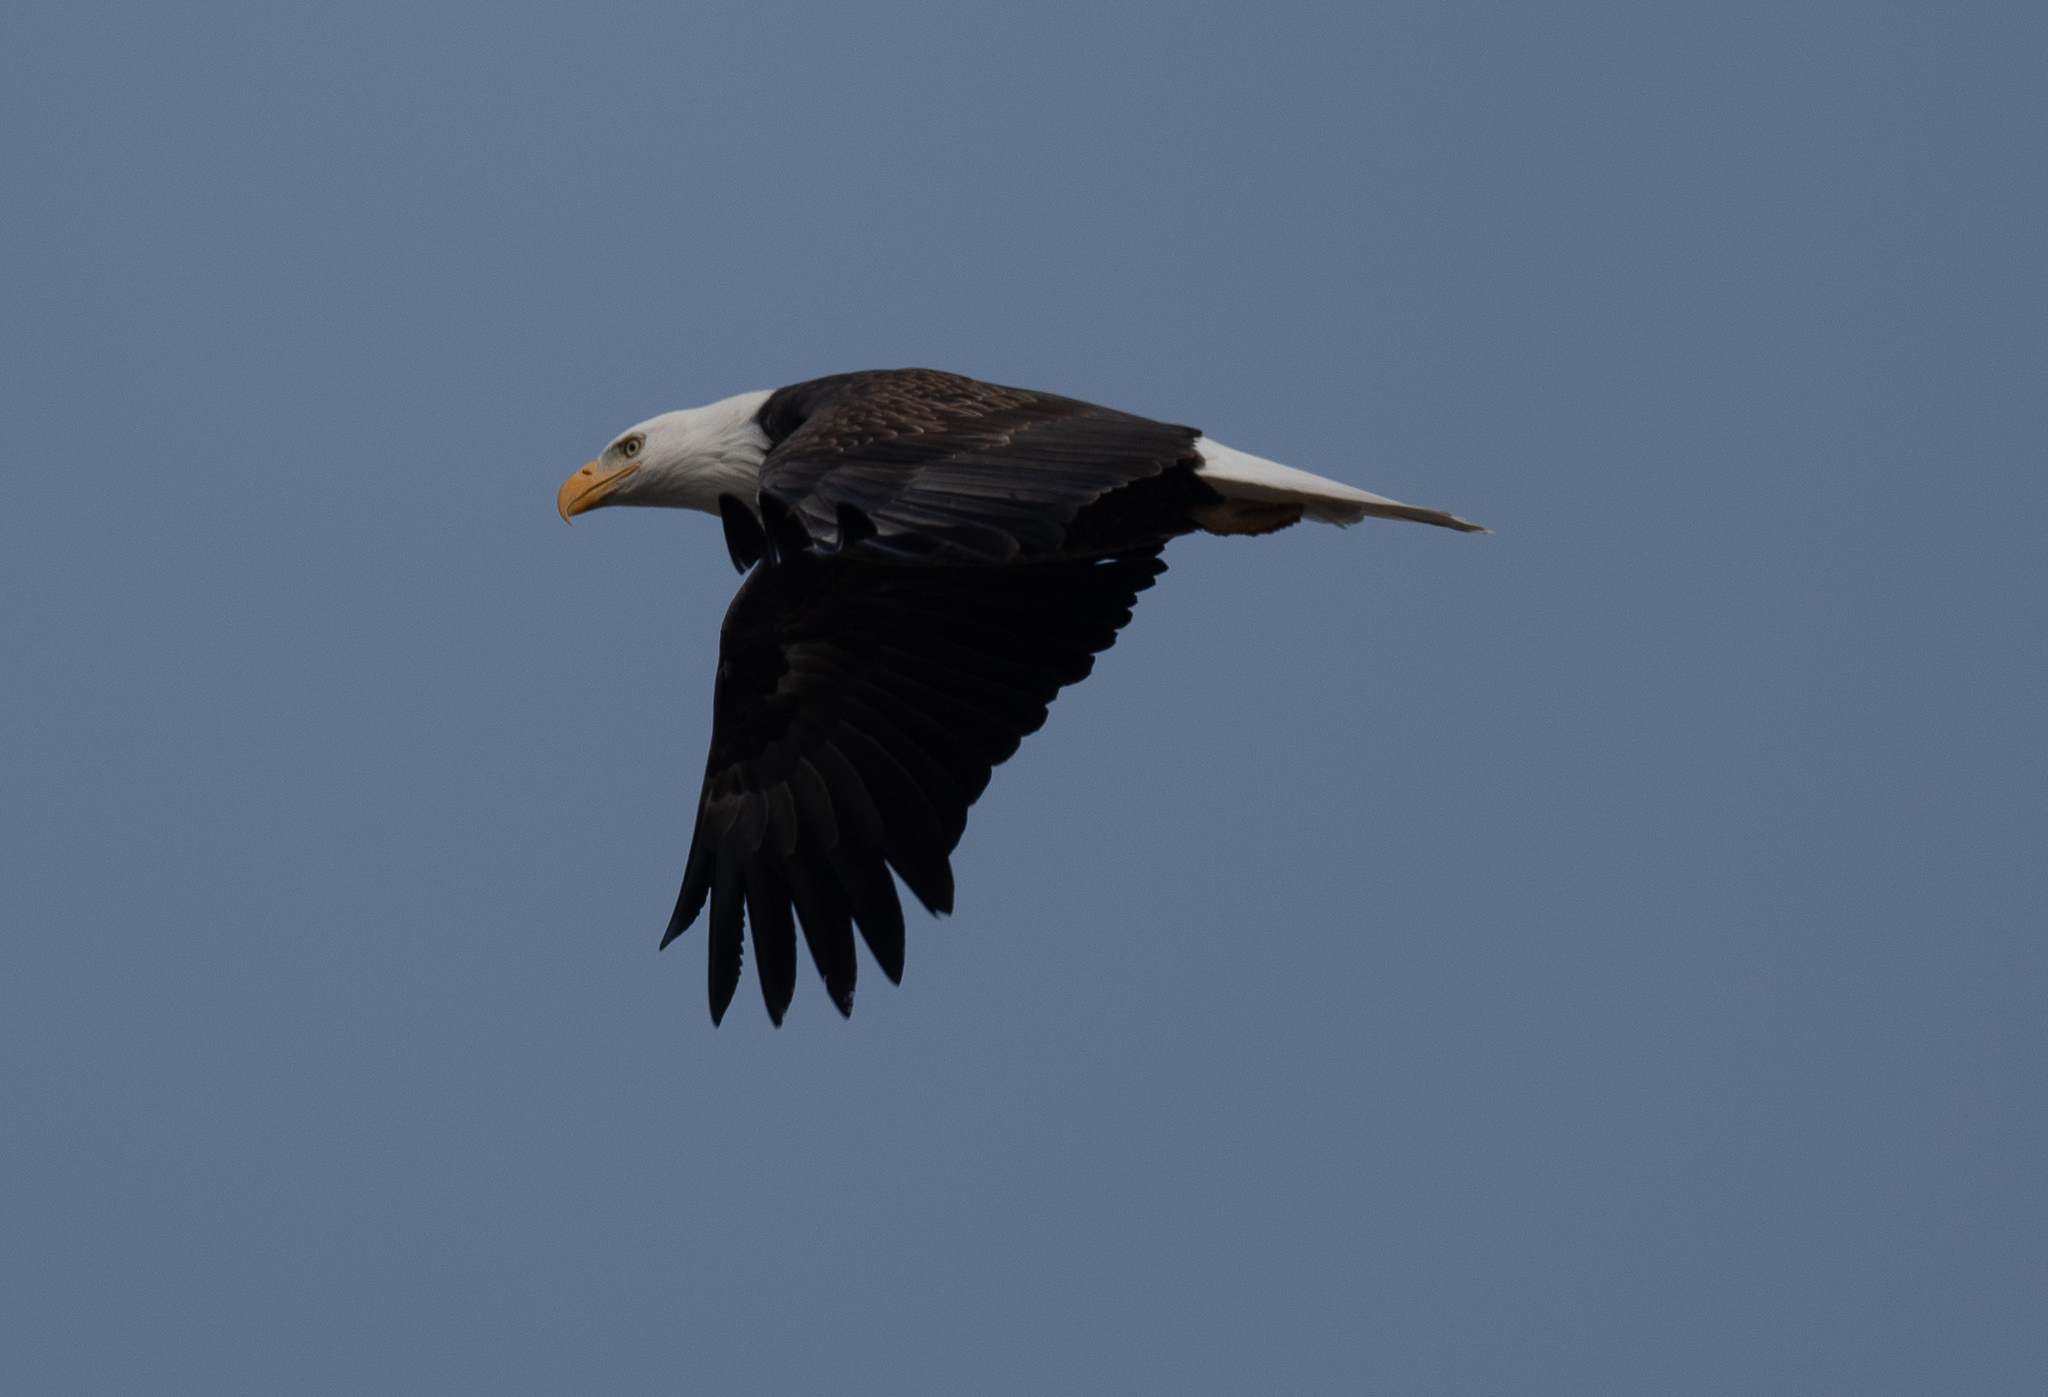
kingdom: Animalia
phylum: Chordata
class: Aves
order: Accipitriformes
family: Accipitridae
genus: Haliaeetus
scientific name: Haliaeetus leucocephalus
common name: Bald eagle
